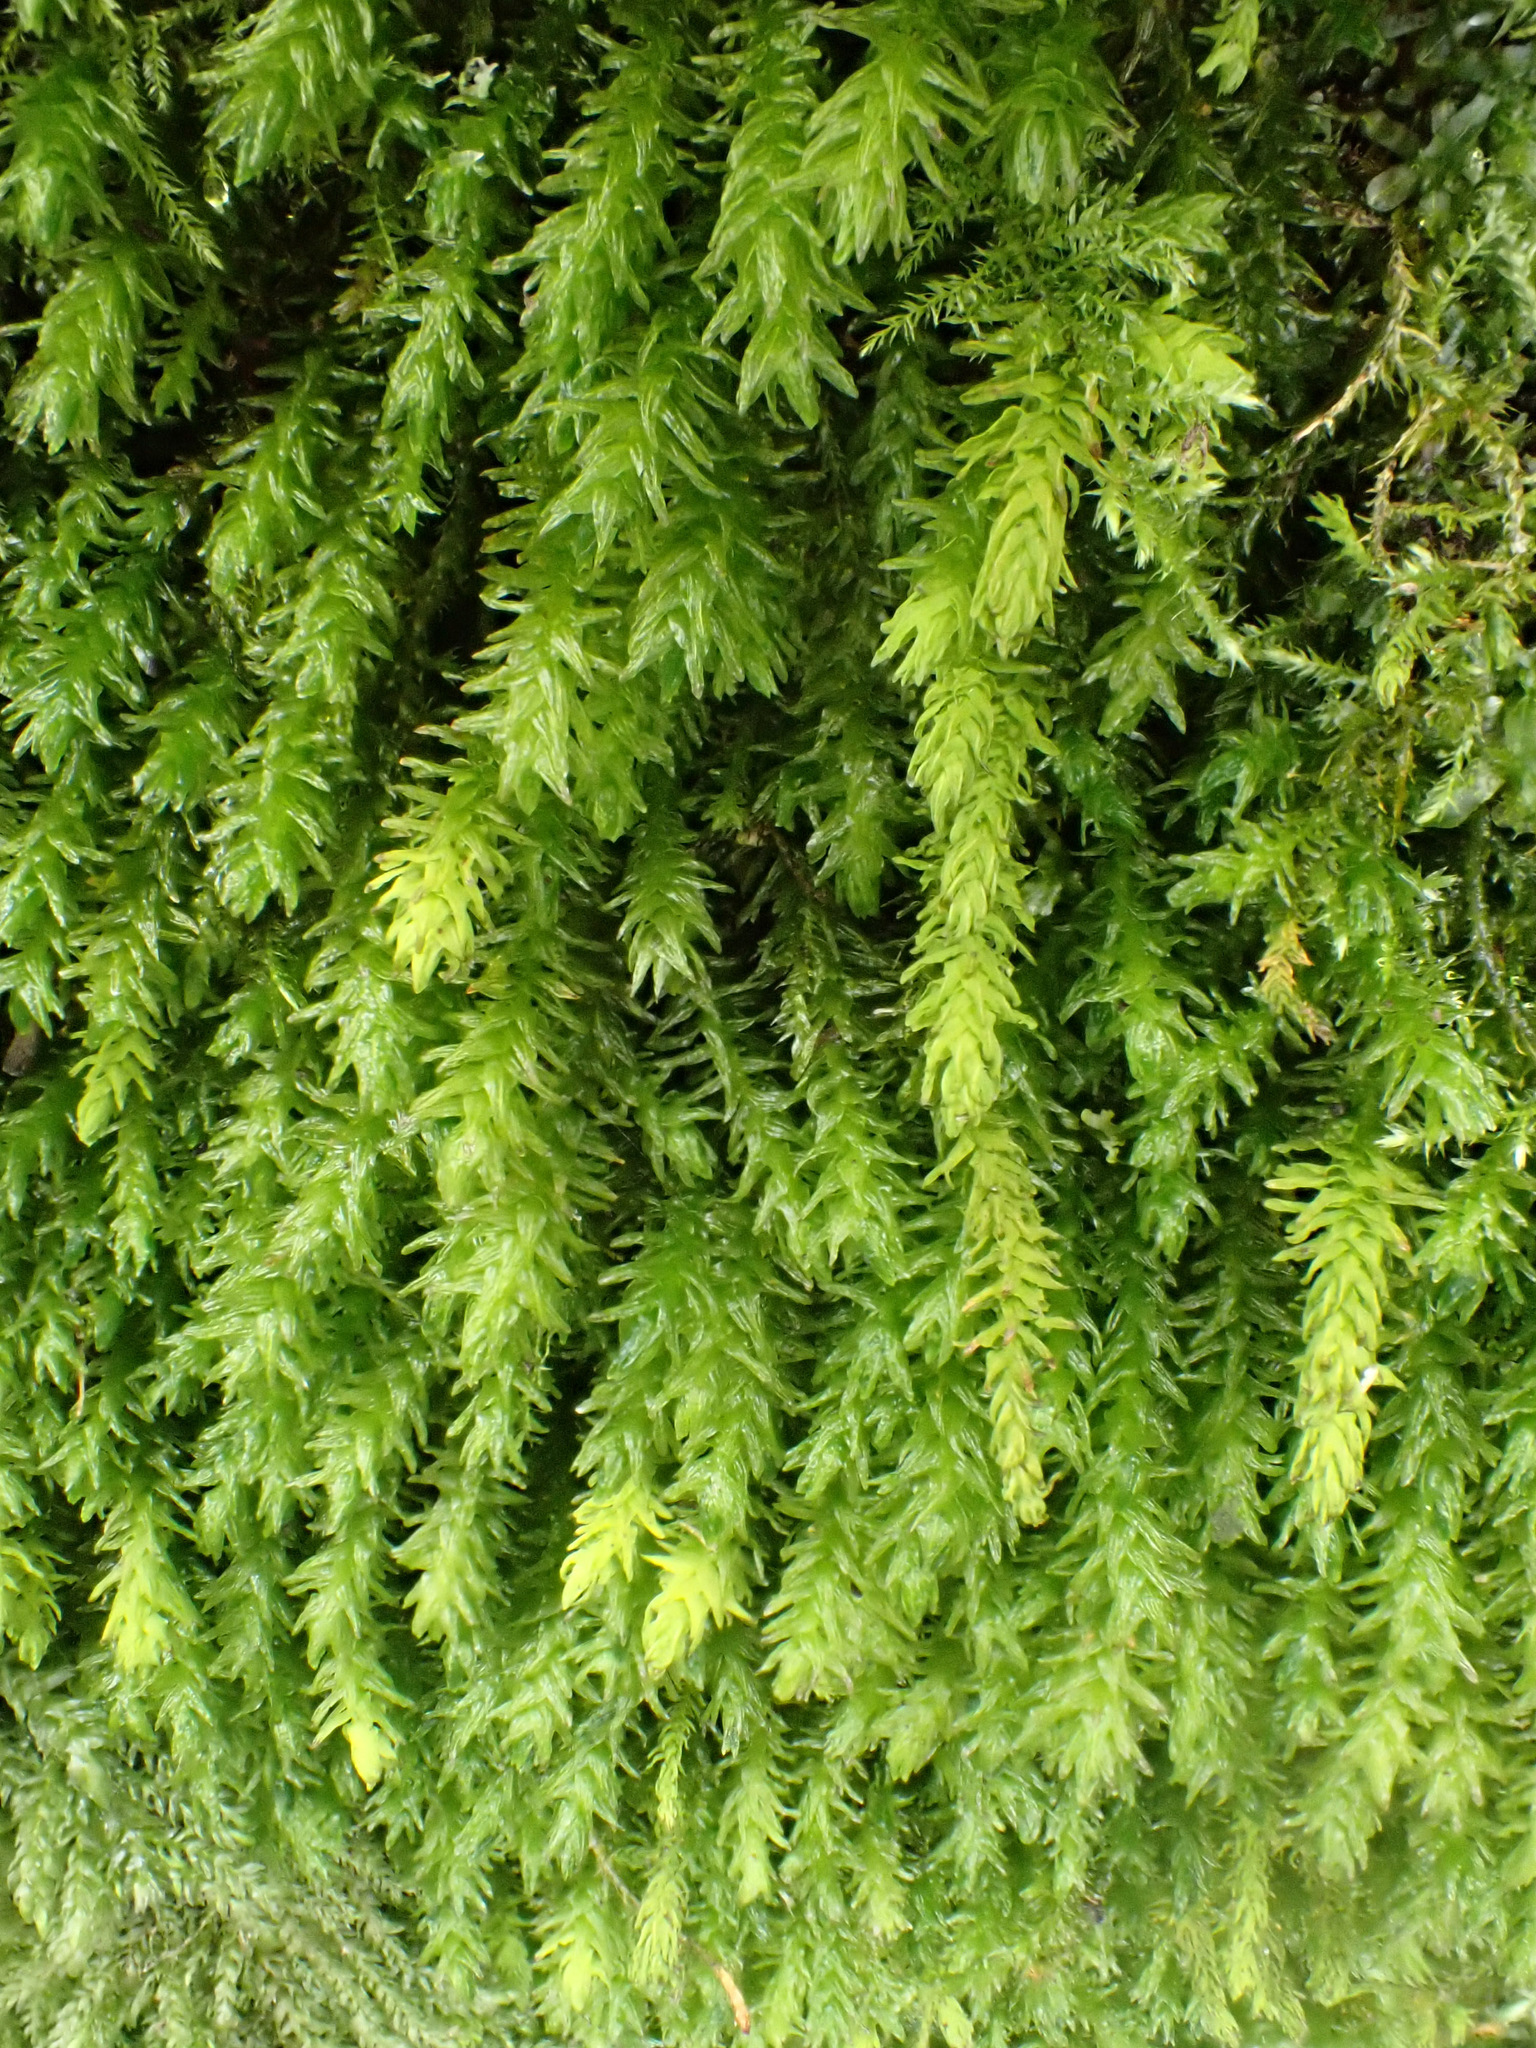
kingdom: Plantae
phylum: Bryophyta
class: Bryopsida
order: Hypnales
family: Anomodontaceae
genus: Anomodon
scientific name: Anomodon viticulosus
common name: Tall anomodon
